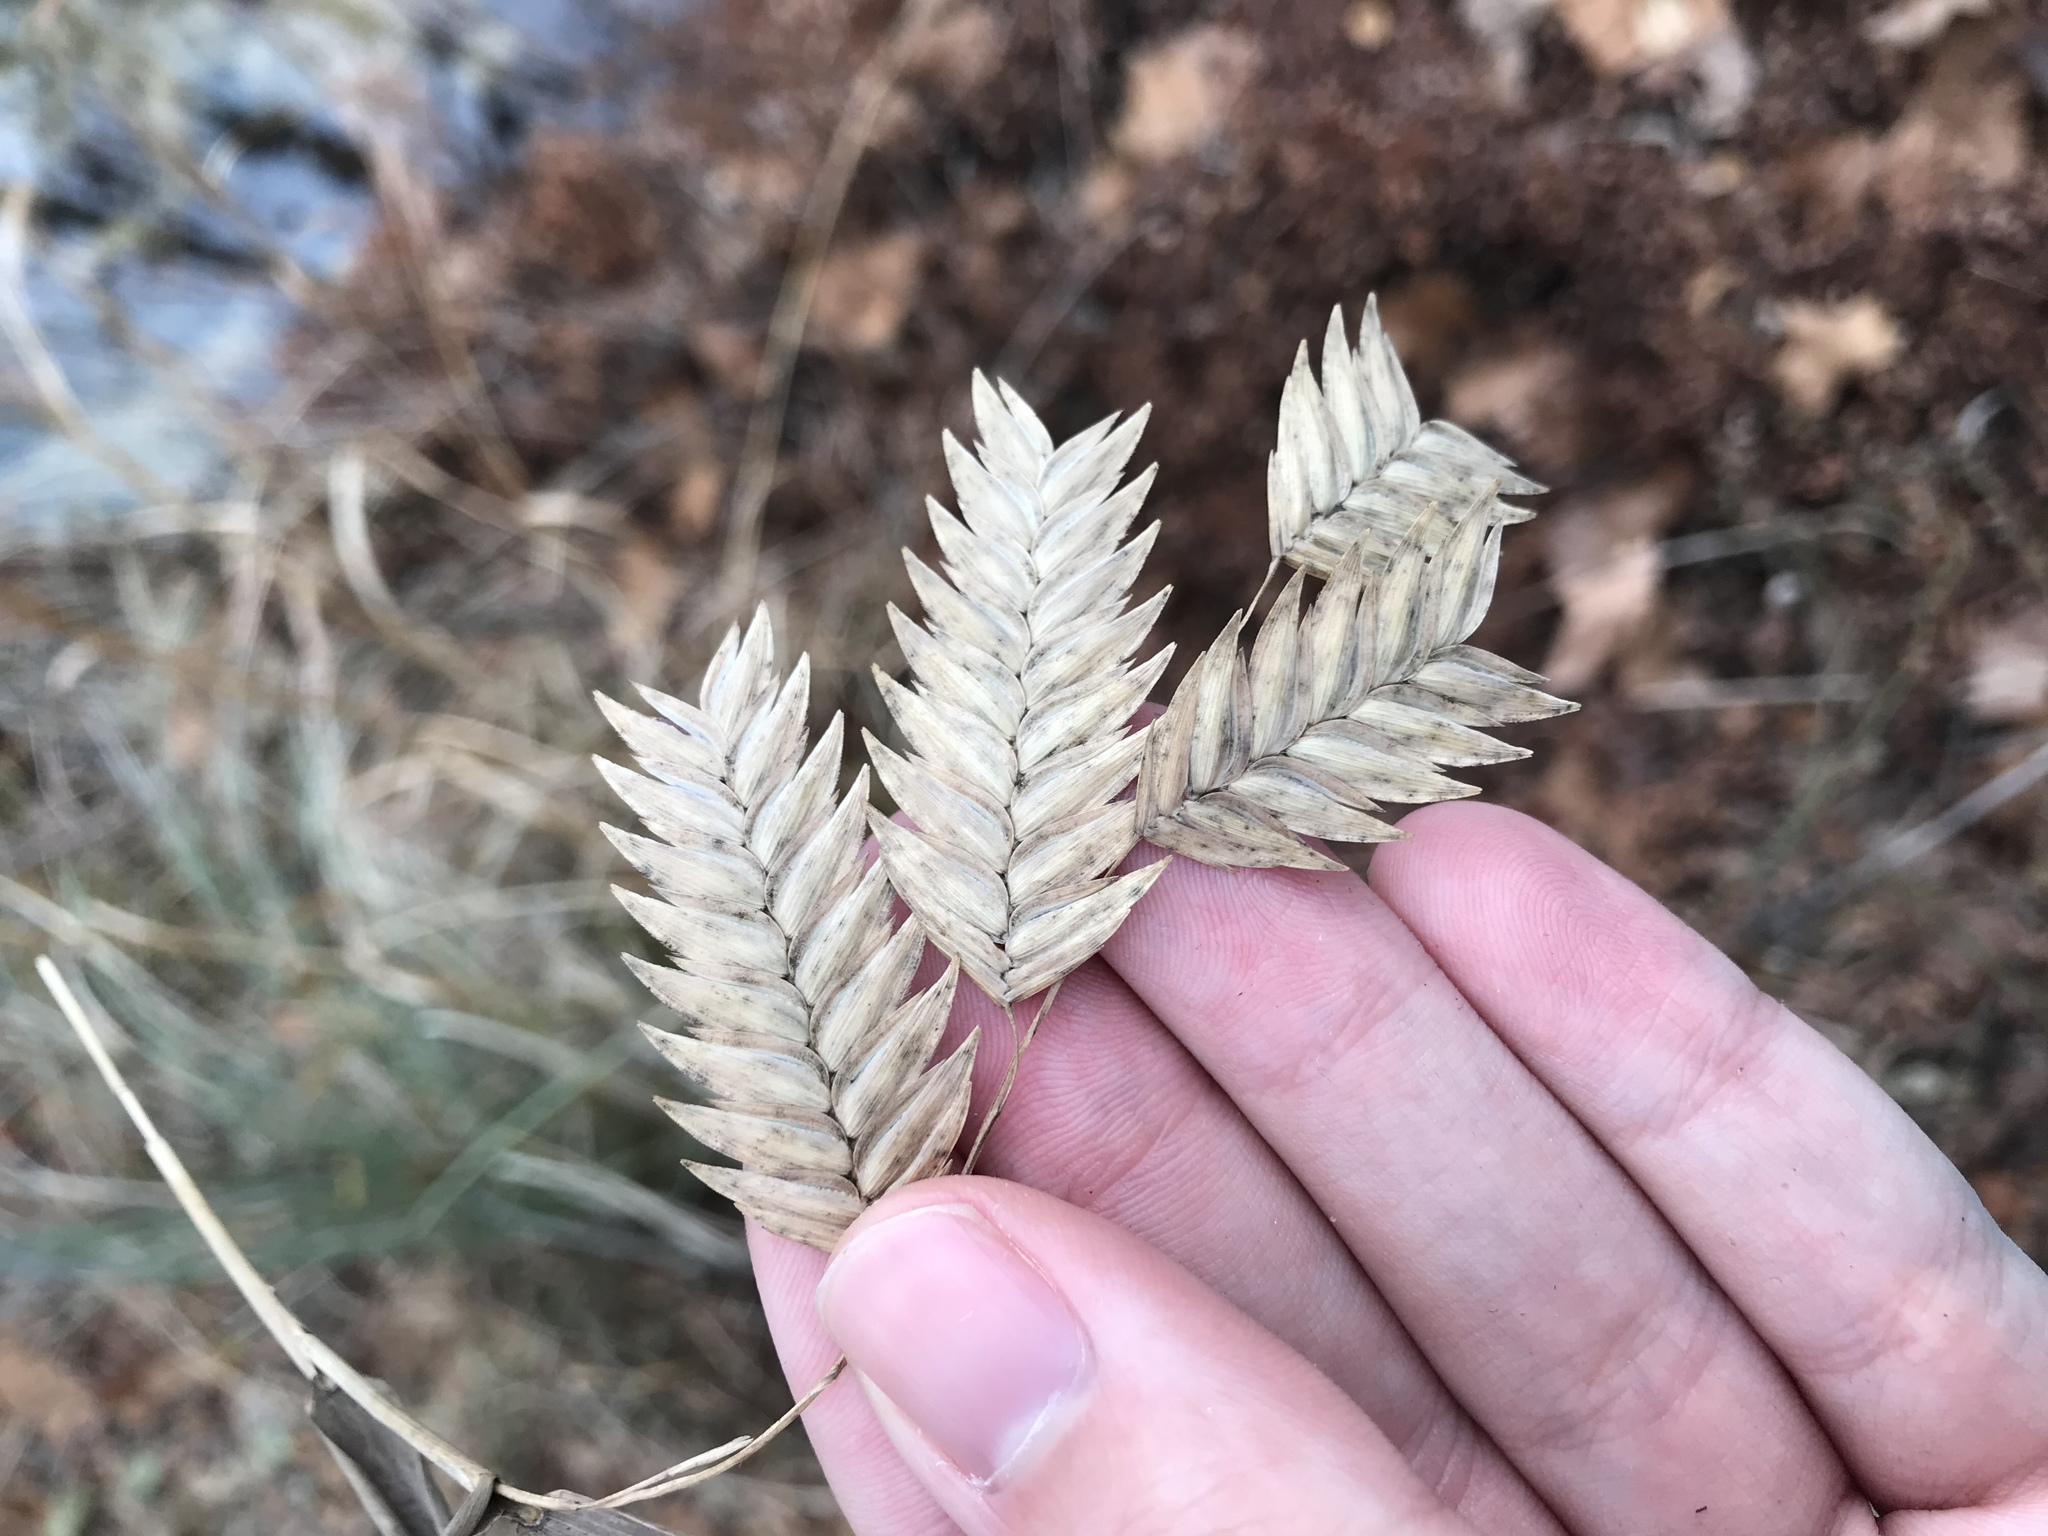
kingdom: Plantae
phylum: Tracheophyta
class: Liliopsida
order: Poales
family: Poaceae
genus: Chasmanthium
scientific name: Chasmanthium latifolium
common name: Broad-leaved chasmanthium
